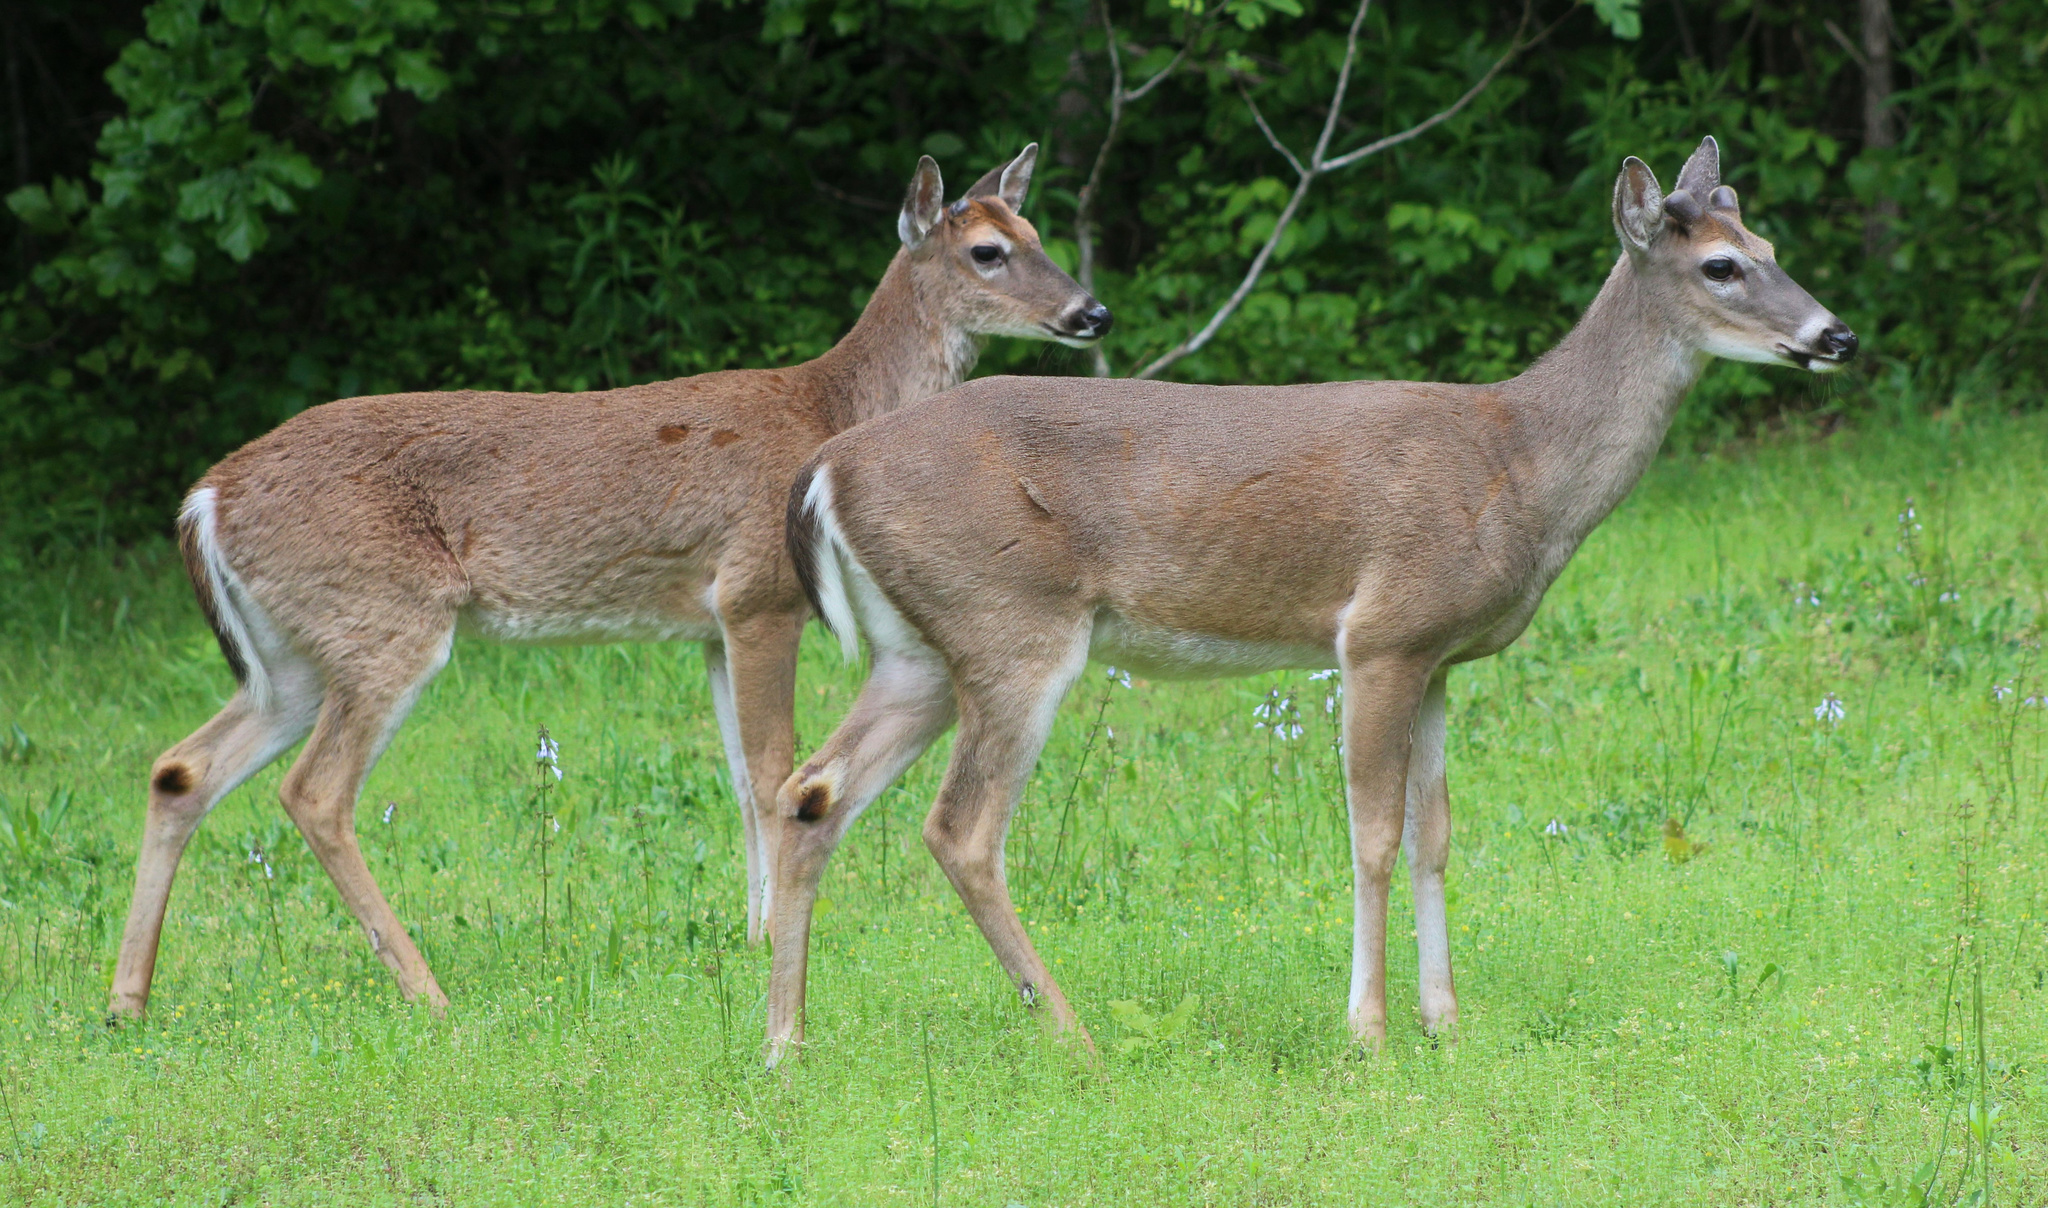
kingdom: Animalia
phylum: Chordata
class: Mammalia
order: Artiodactyla
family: Cervidae
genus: Odocoileus
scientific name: Odocoileus virginianus
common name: White-tailed deer
